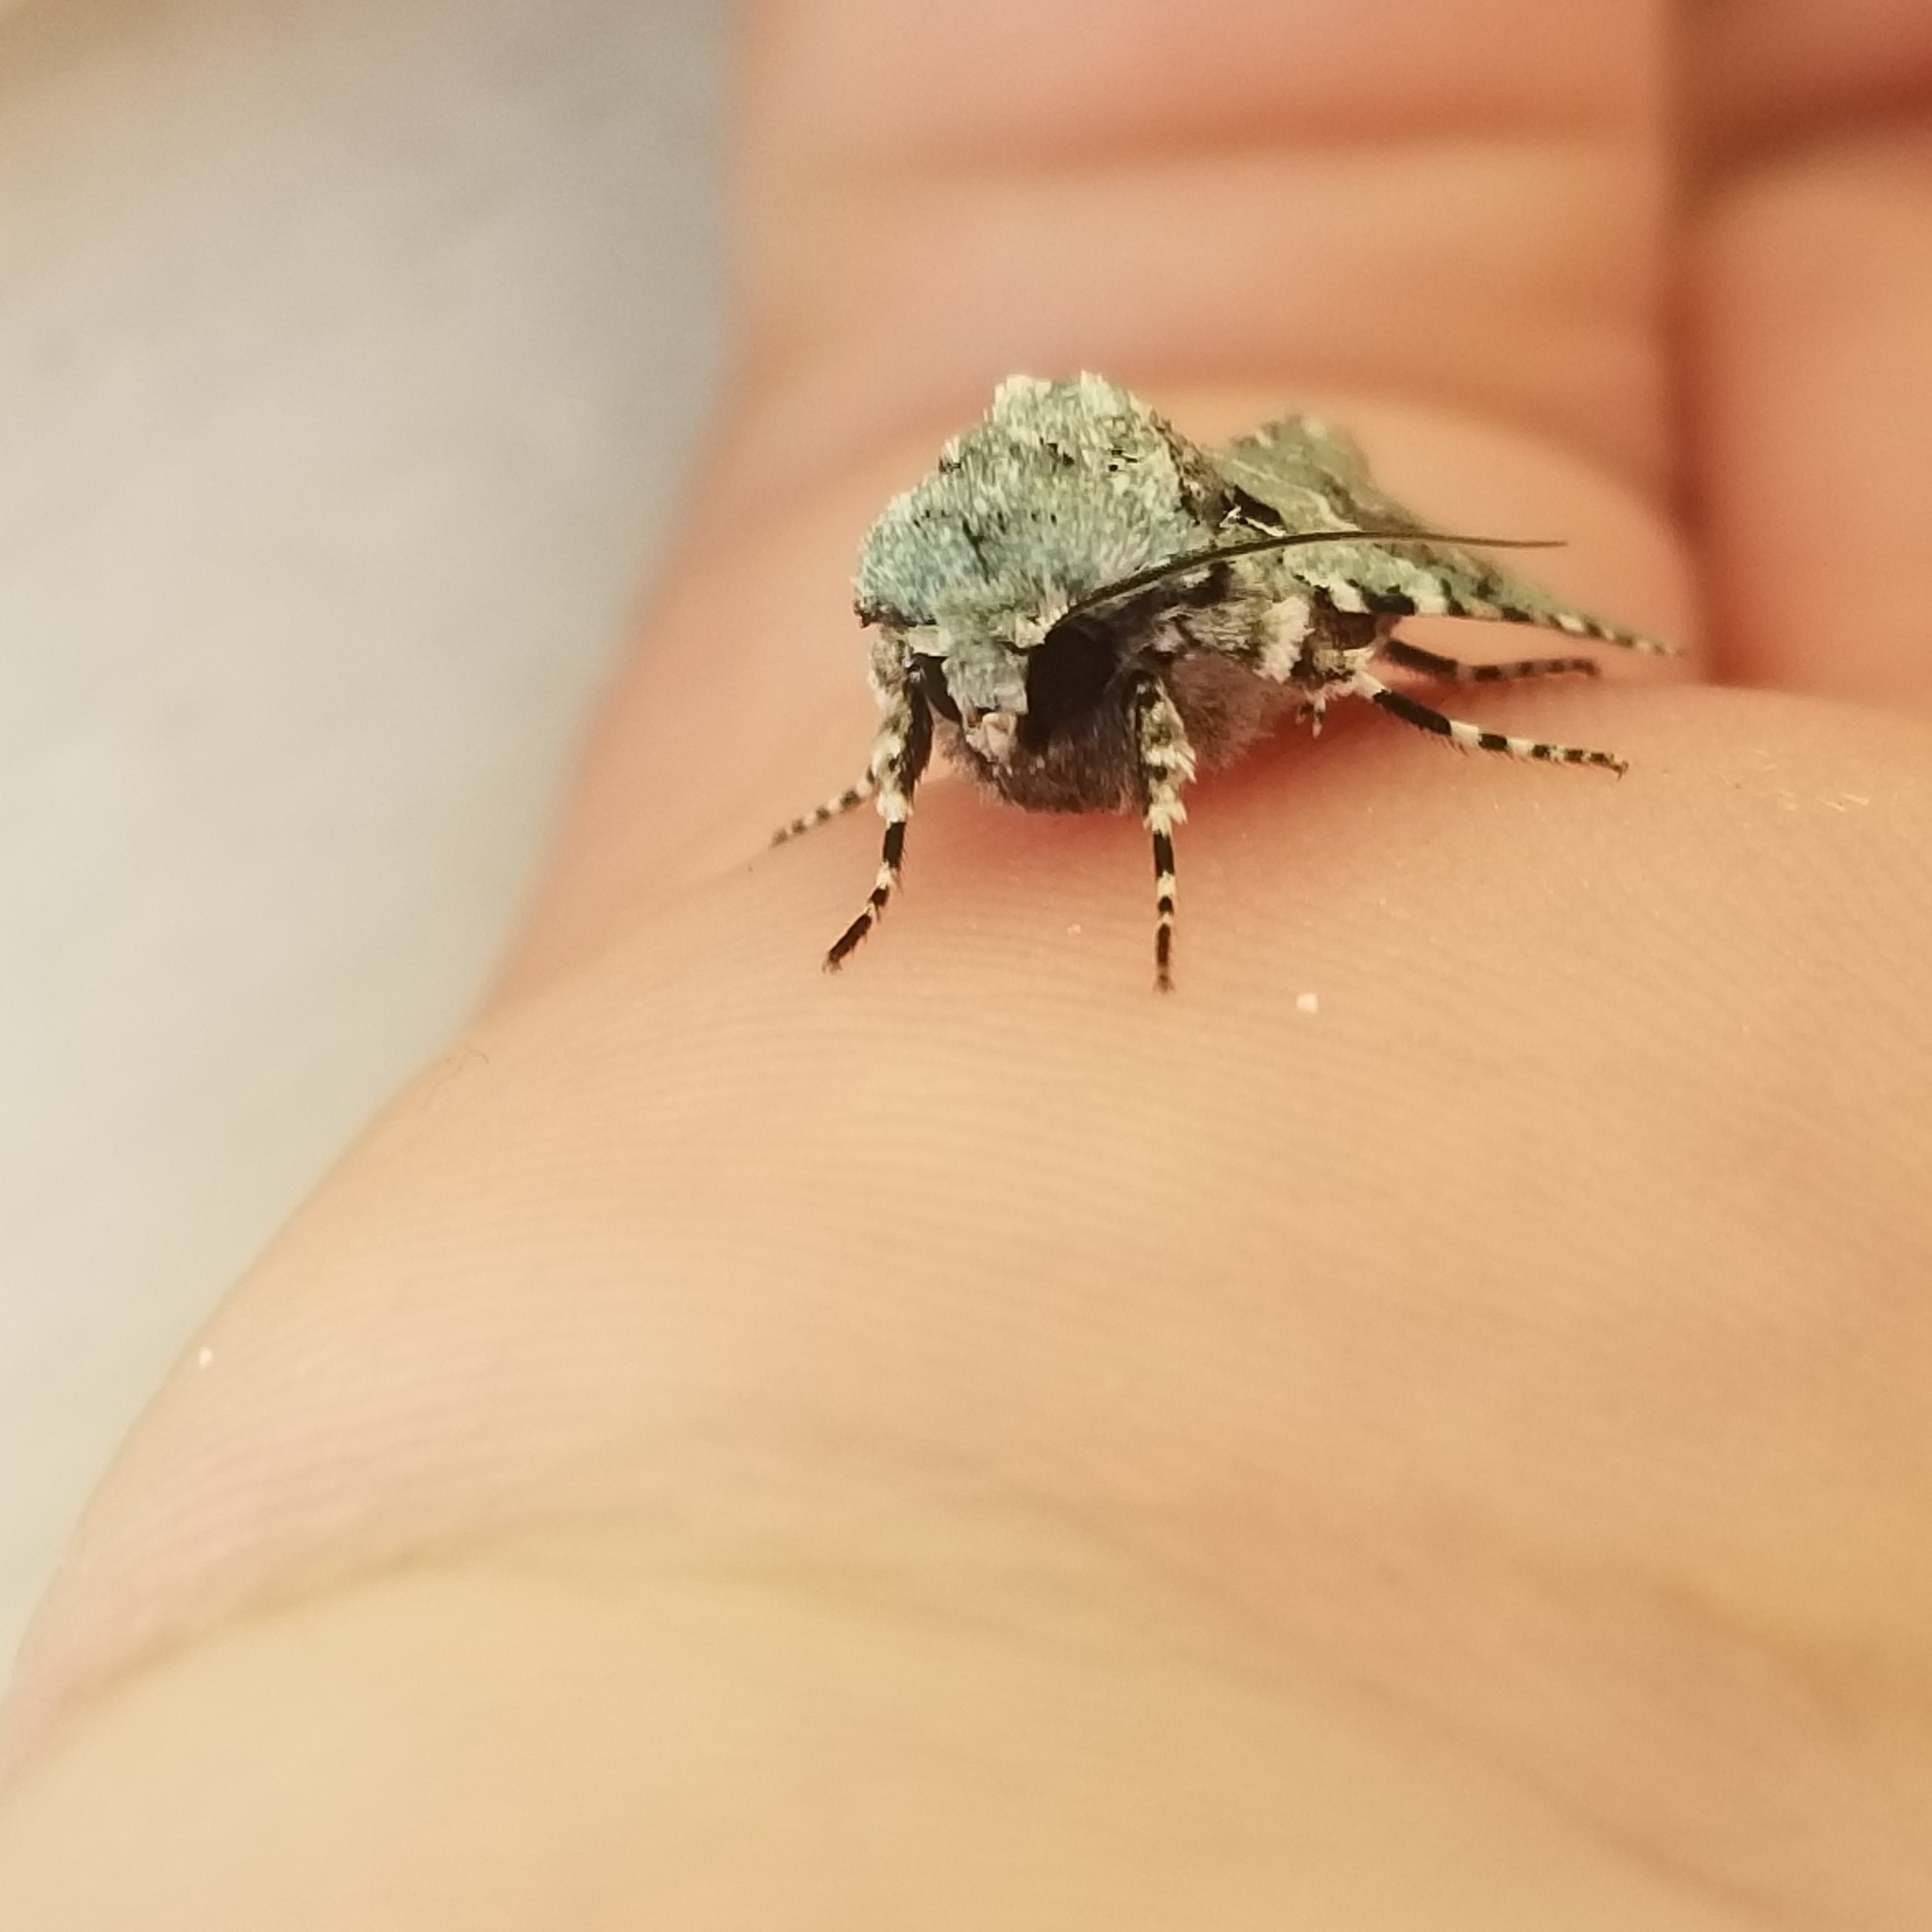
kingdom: Animalia
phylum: Arthropoda
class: Insecta
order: Lepidoptera
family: Noctuidae
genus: Lacinipolia
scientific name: Lacinipolia laudabilis
